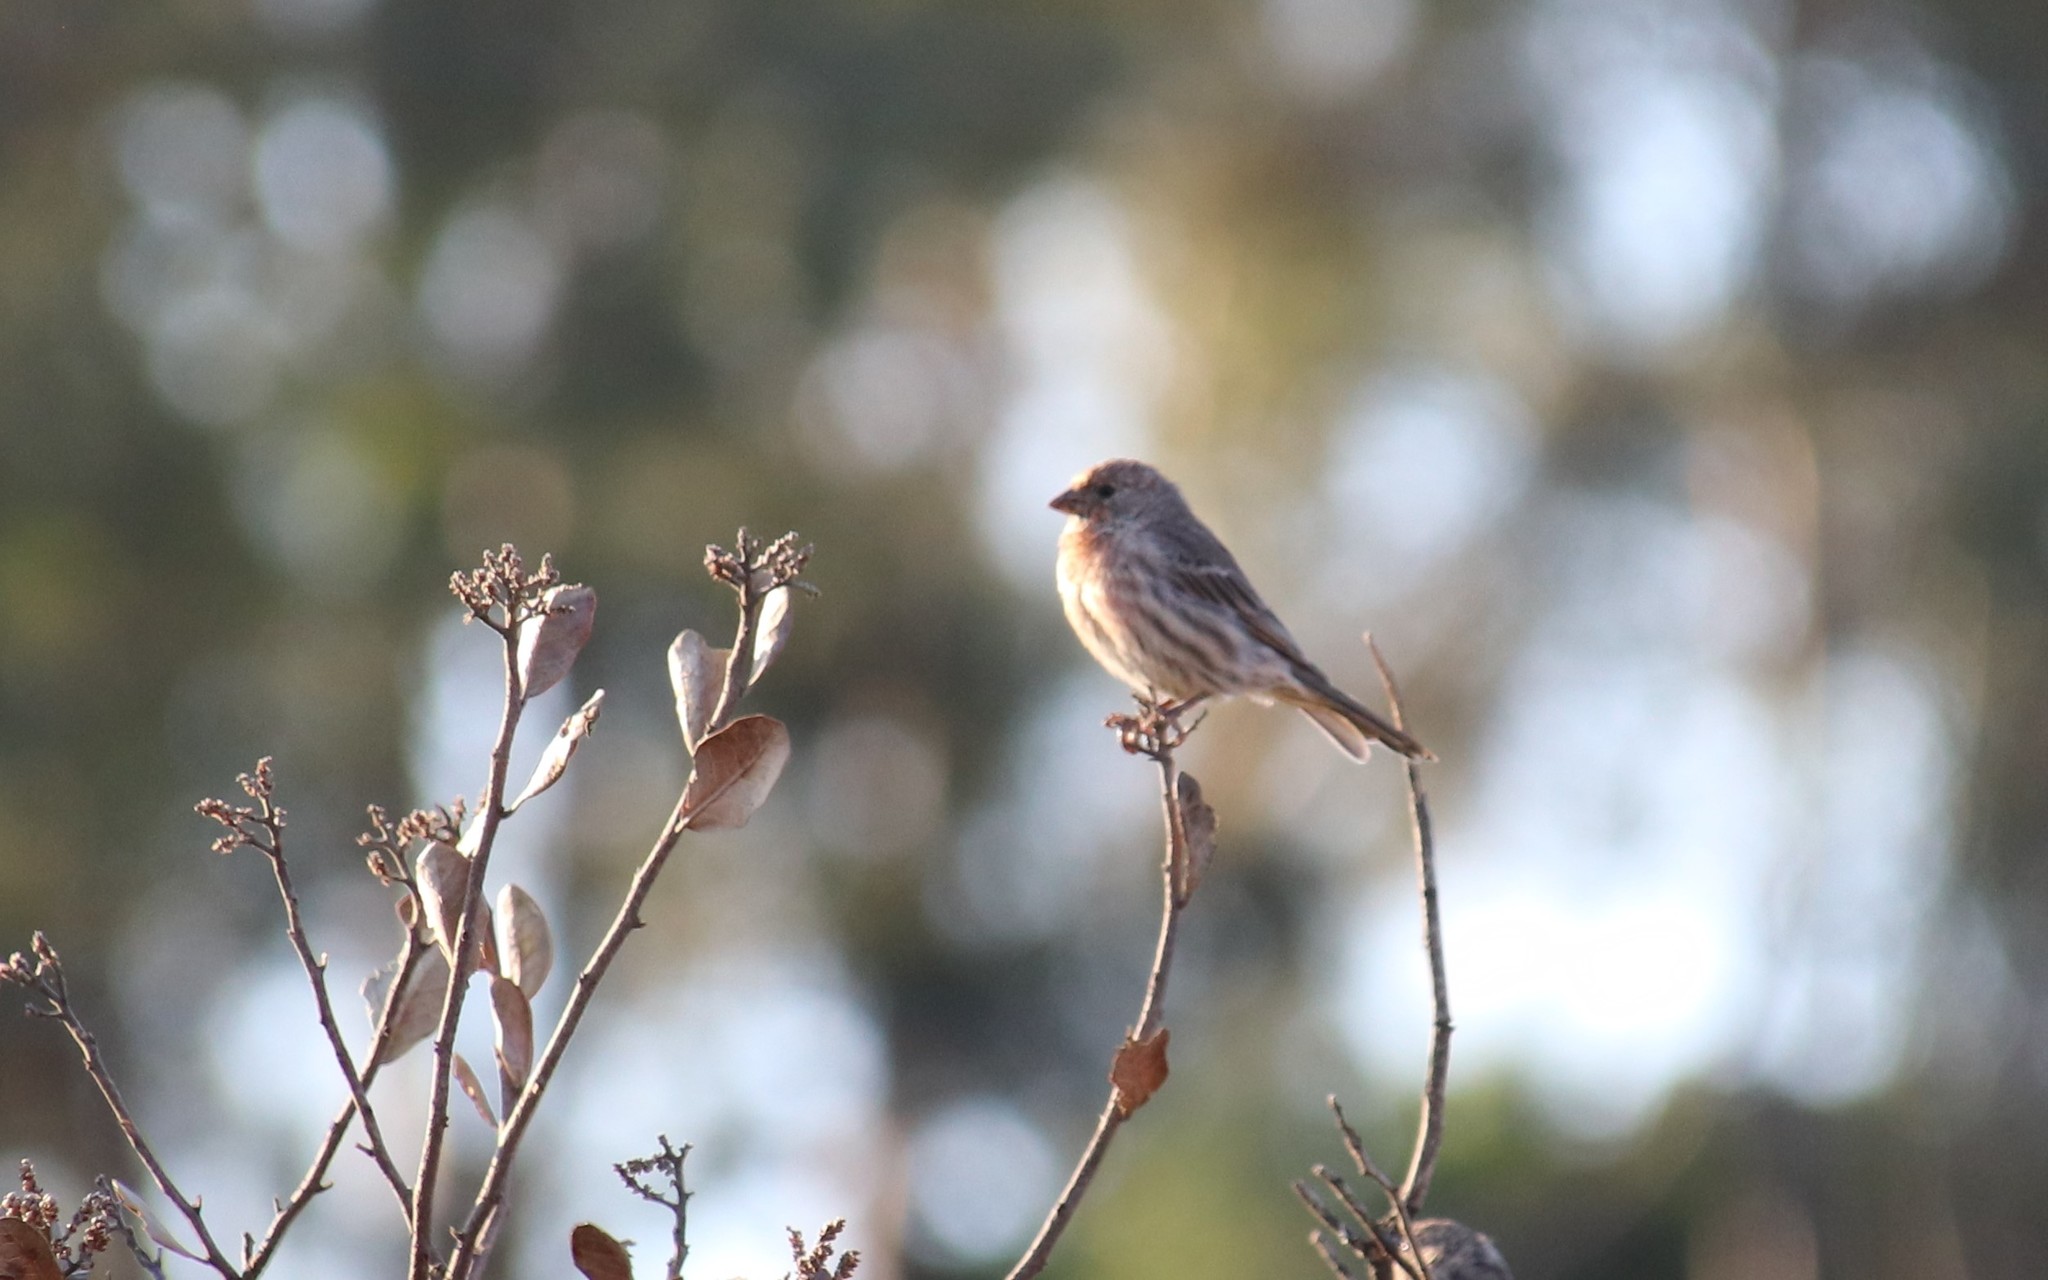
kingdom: Animalia
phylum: Chordata
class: Aves
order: Passeriformes
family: Fringillidae
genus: Haemorhous
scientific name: Haemorhous mexicanus
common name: House finch
